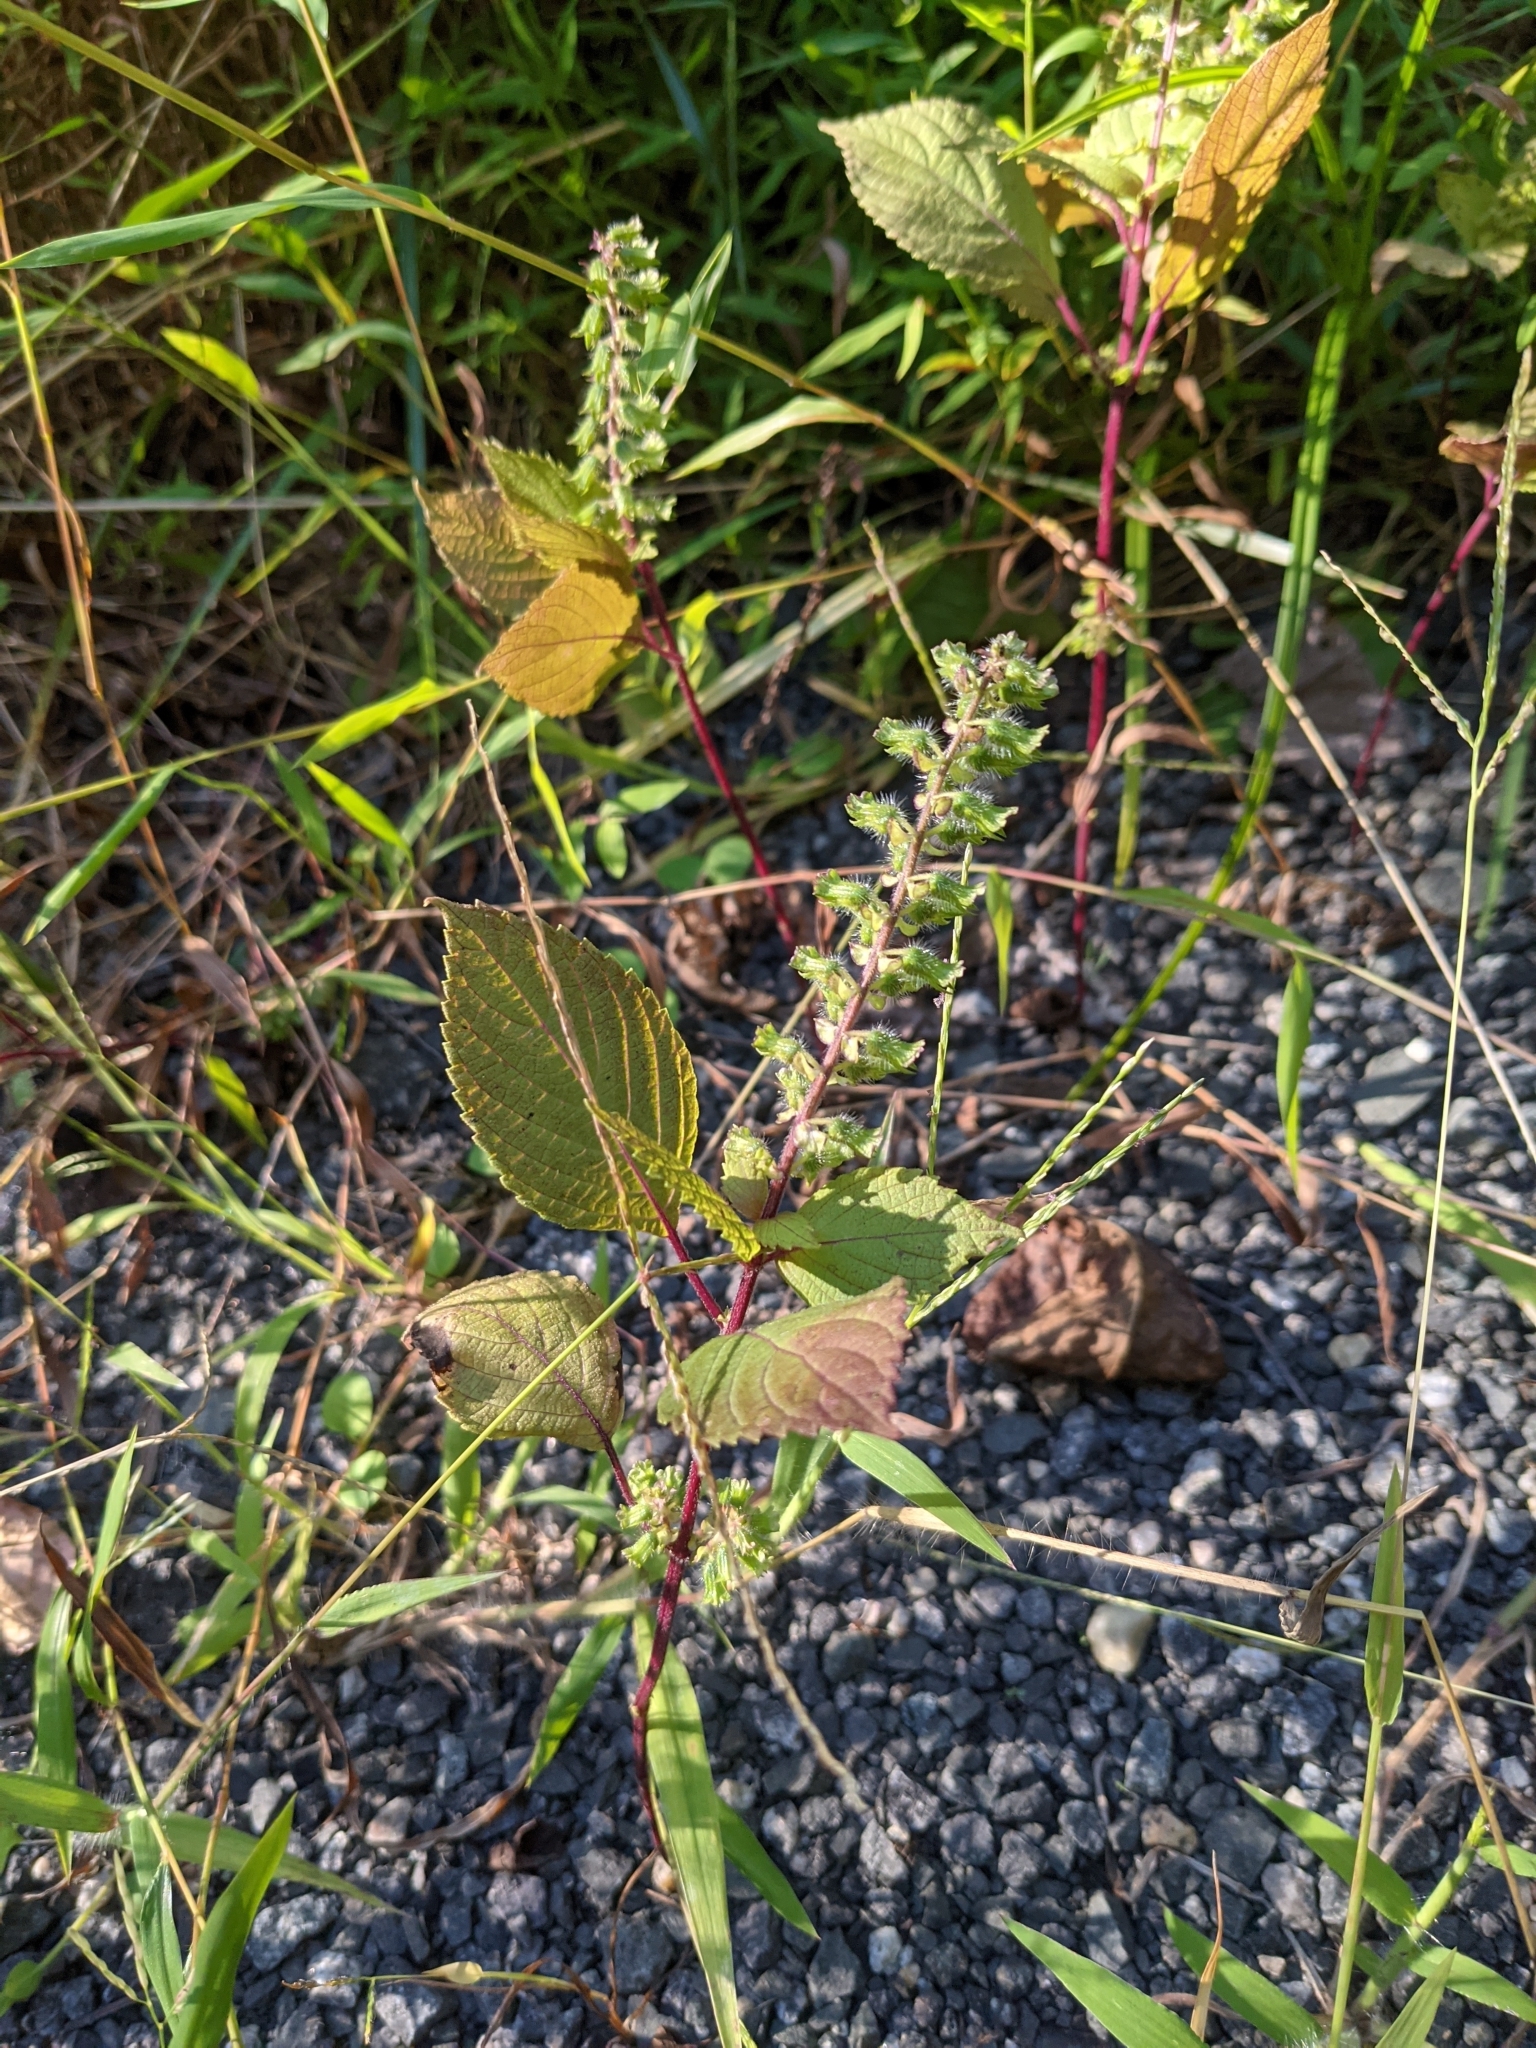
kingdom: Plantae
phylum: Tracheophyta
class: Magnoliopsida
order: Lamiales
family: Lamiaceae
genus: Perilla
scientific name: Perilla frutescens
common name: Perilla
